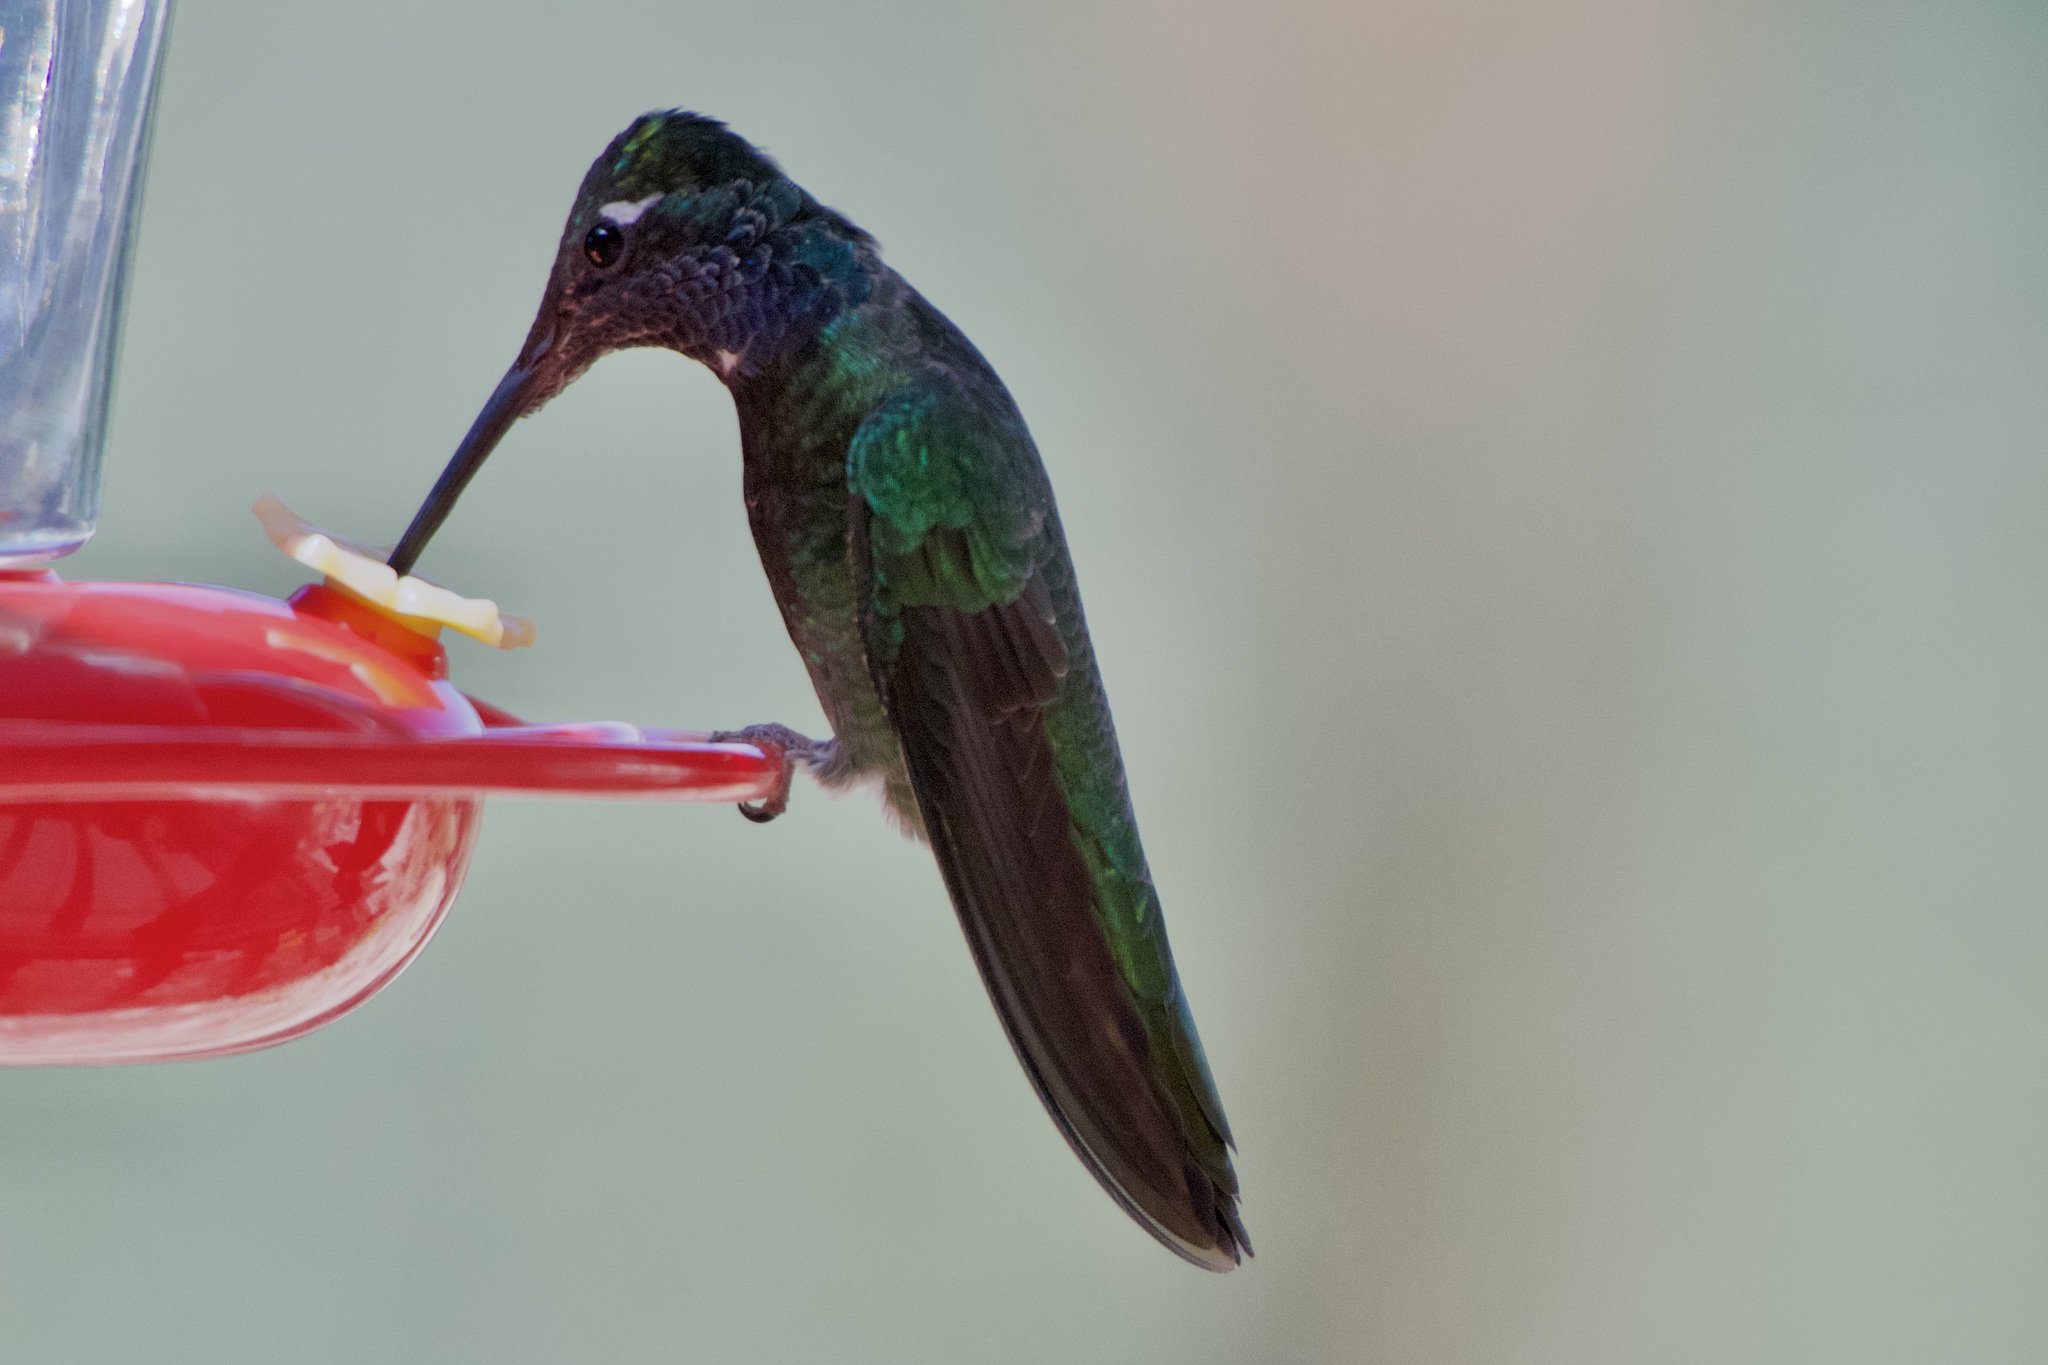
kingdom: Animalia
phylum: Chordata
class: Aves
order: Apodiformes
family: Trochilidae
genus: Eugenes
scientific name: Eugenes fulgens
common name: Magnificent hummingbird
